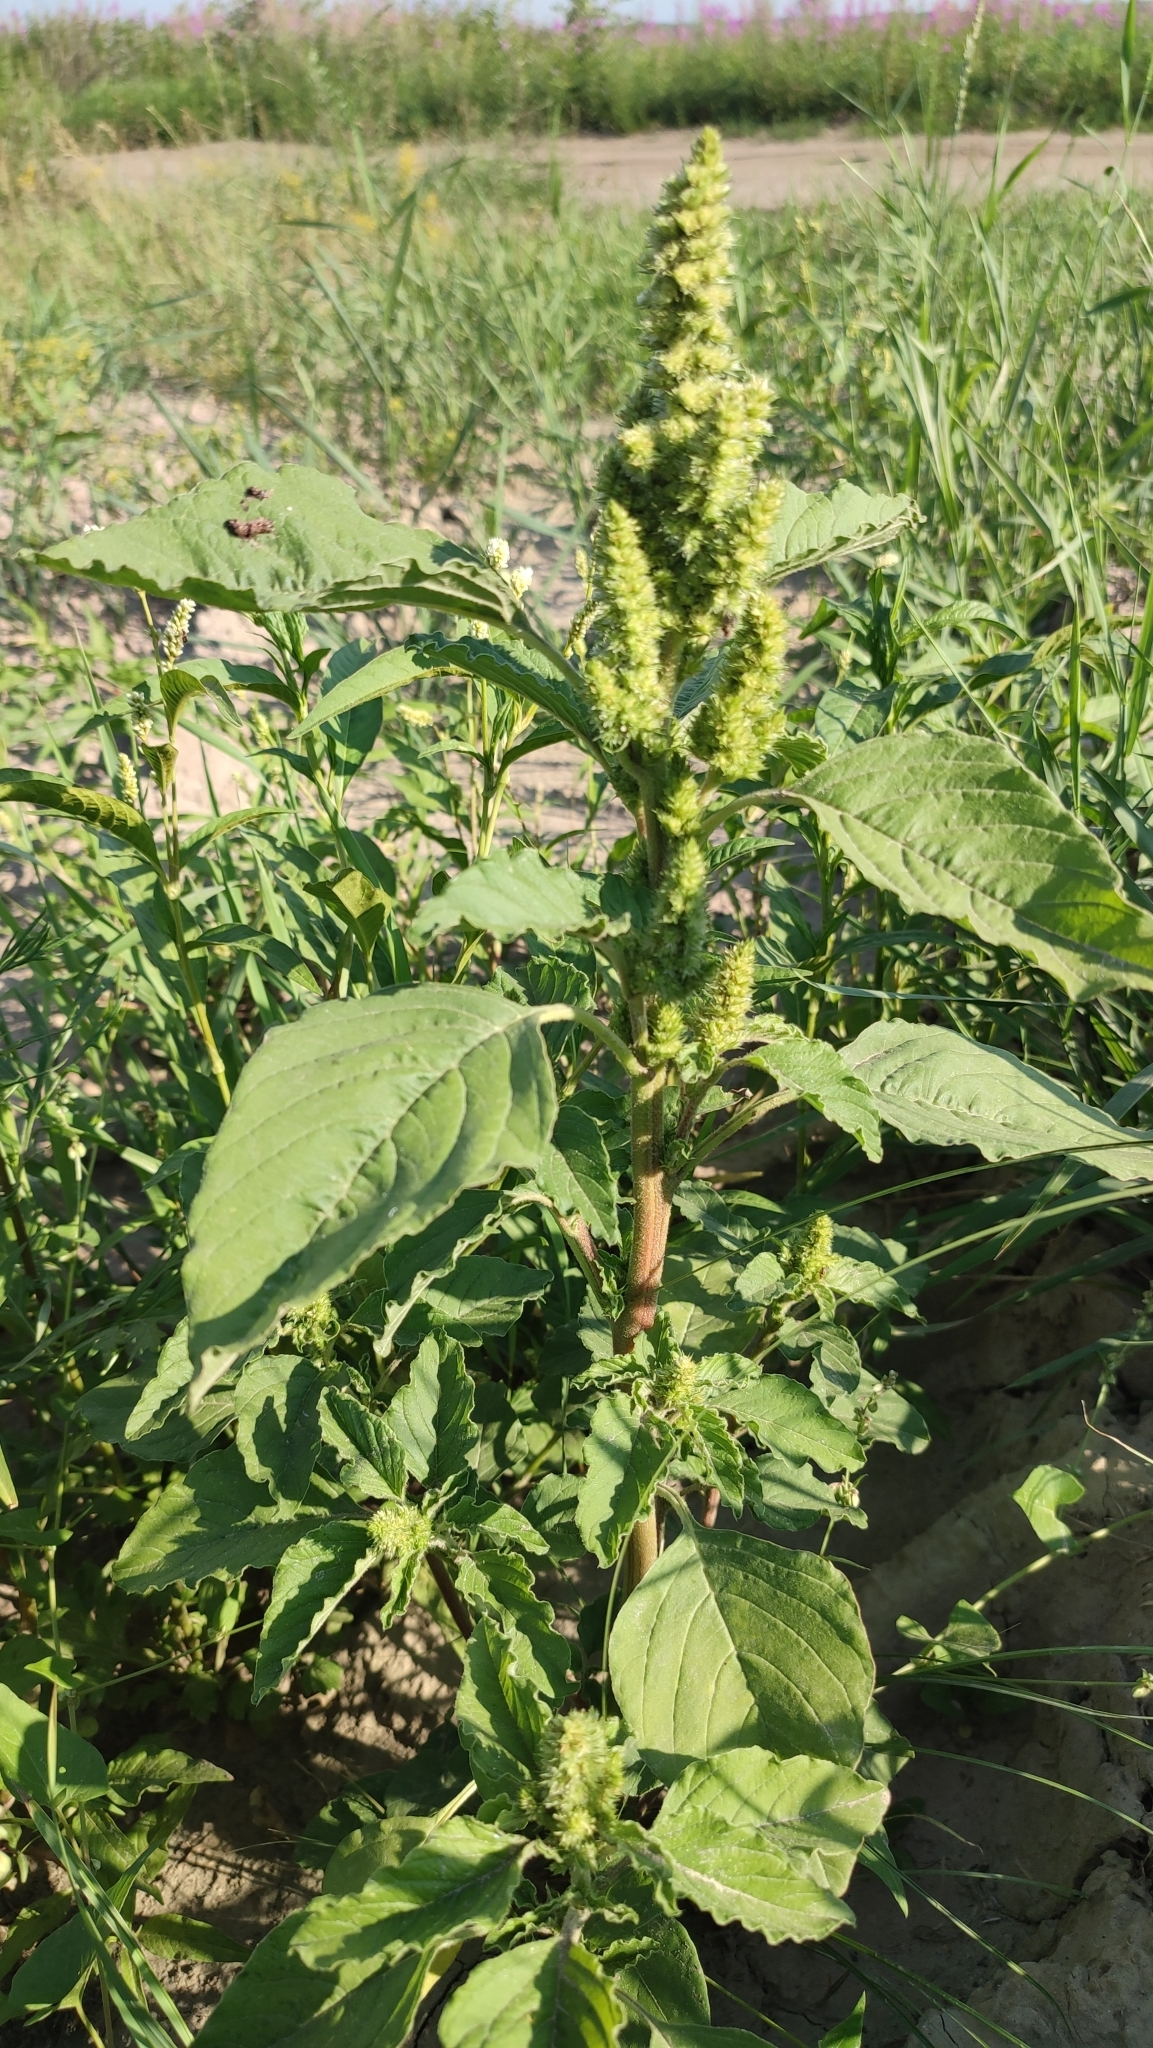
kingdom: Plantae
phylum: Tracheophyta
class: Magnoliopsida
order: Caryophyllales
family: Amaranthaceae
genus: Amaranthus
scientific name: Amaranthus retroflexus
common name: Redroot amaranth
